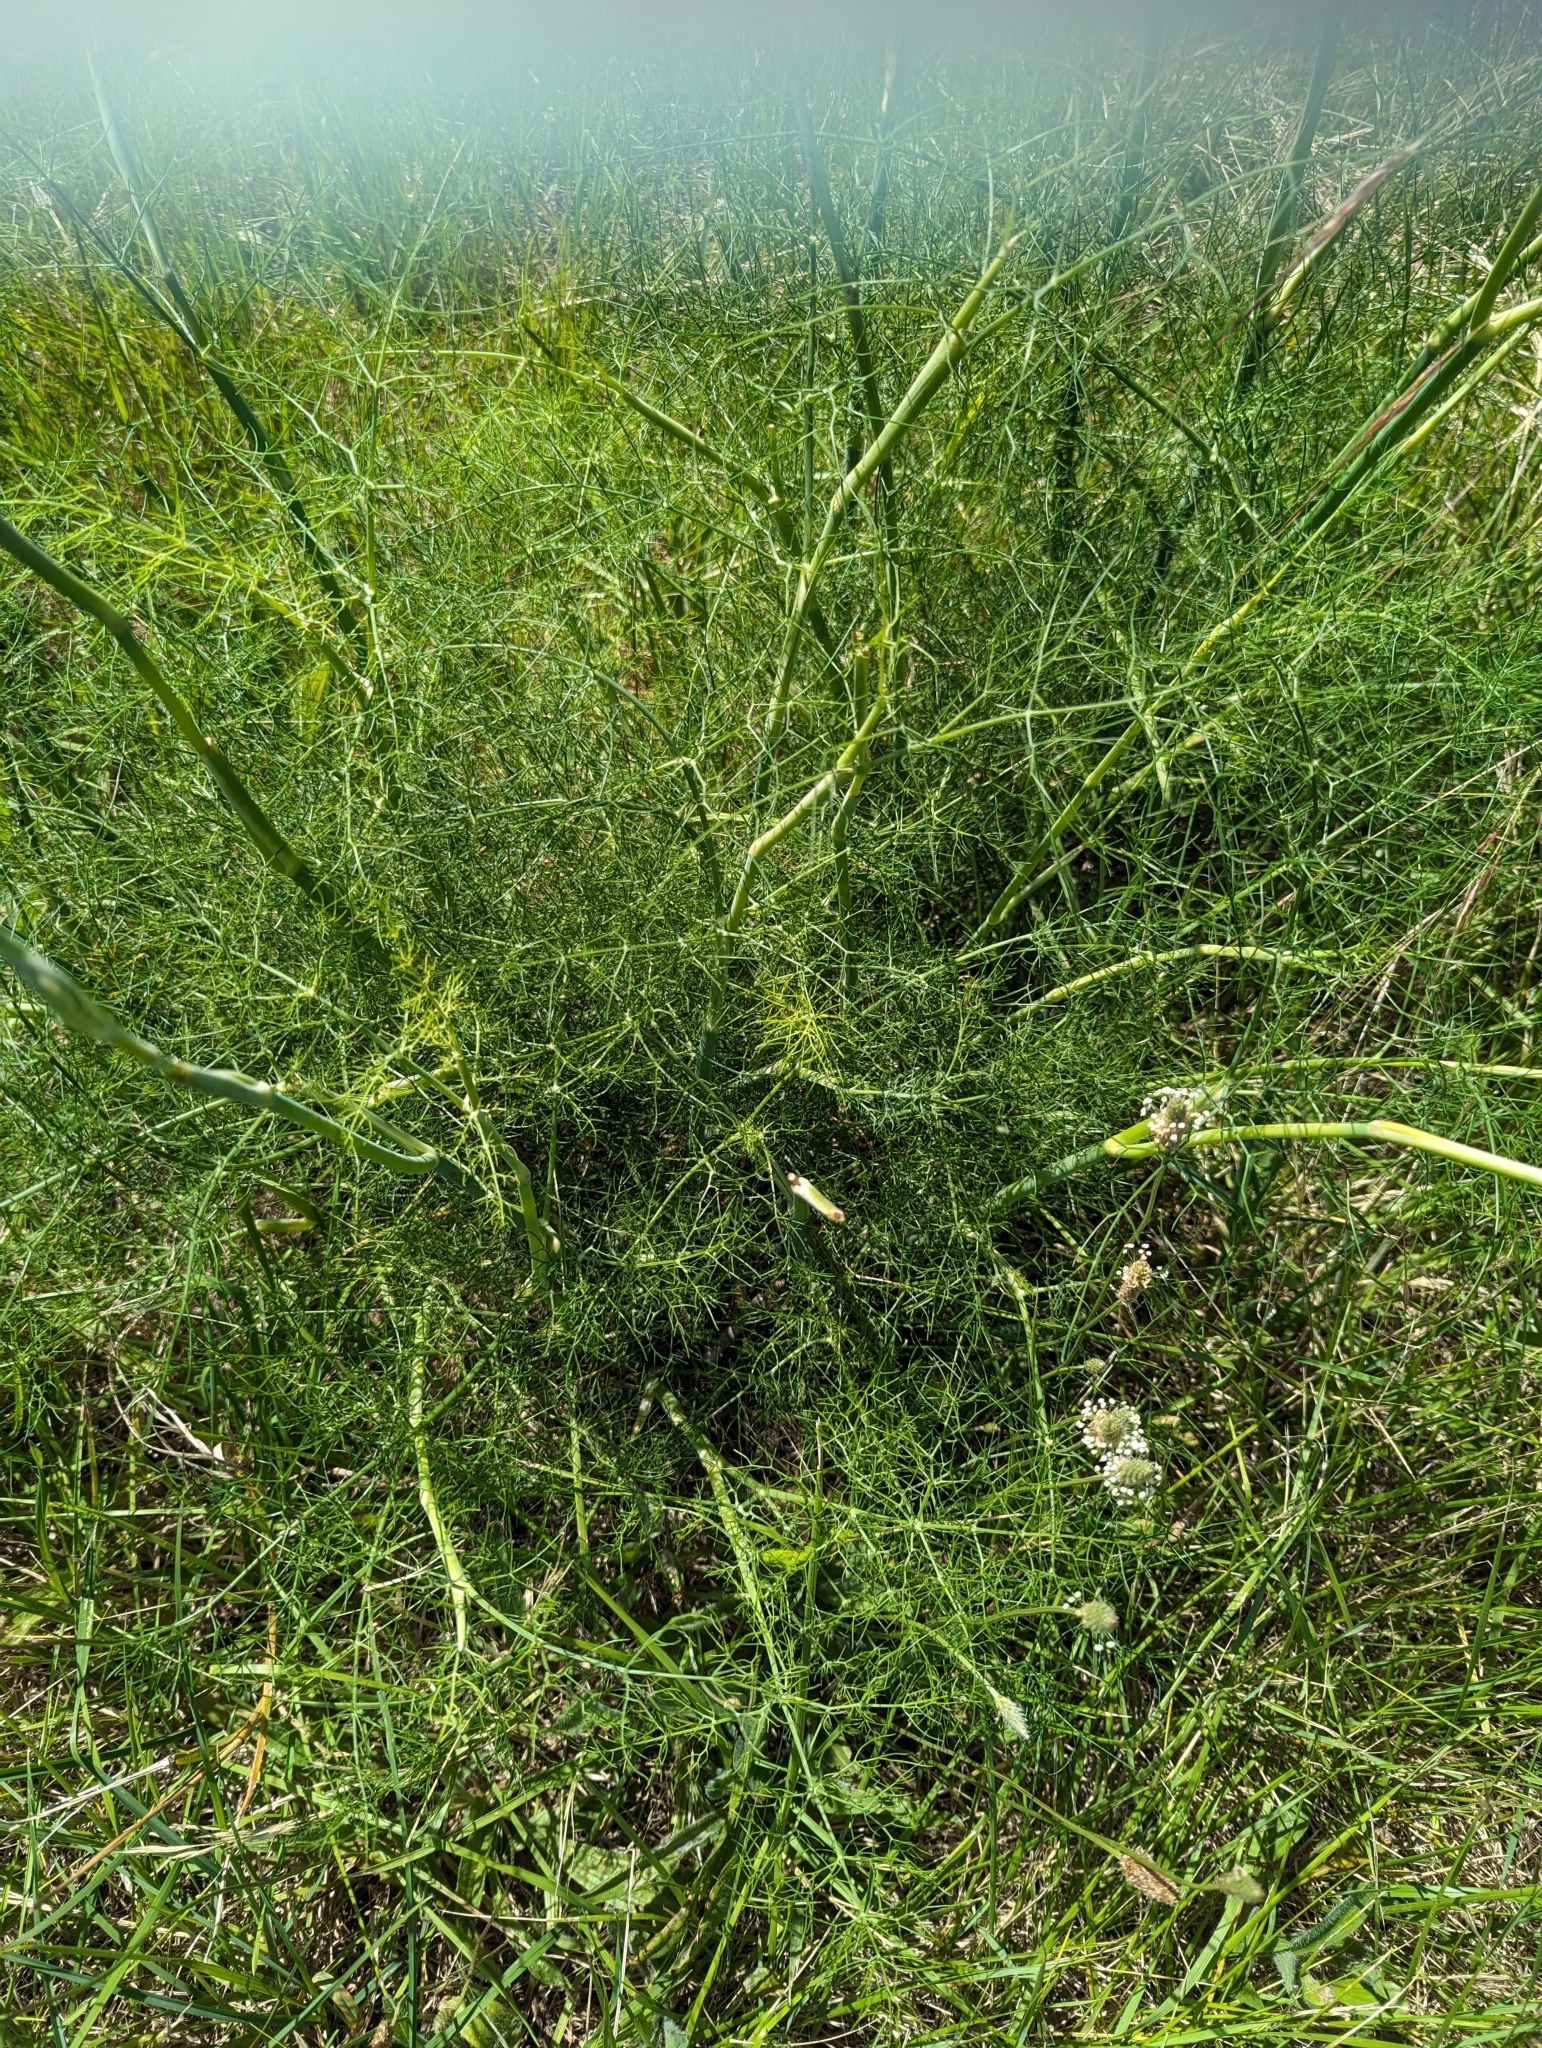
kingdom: Plantae
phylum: Tracheophyta
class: Magnoliopsida
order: Apiales
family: Apiaceae
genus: Foeniculum
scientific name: Foeniculum vulgare
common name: Fennel
